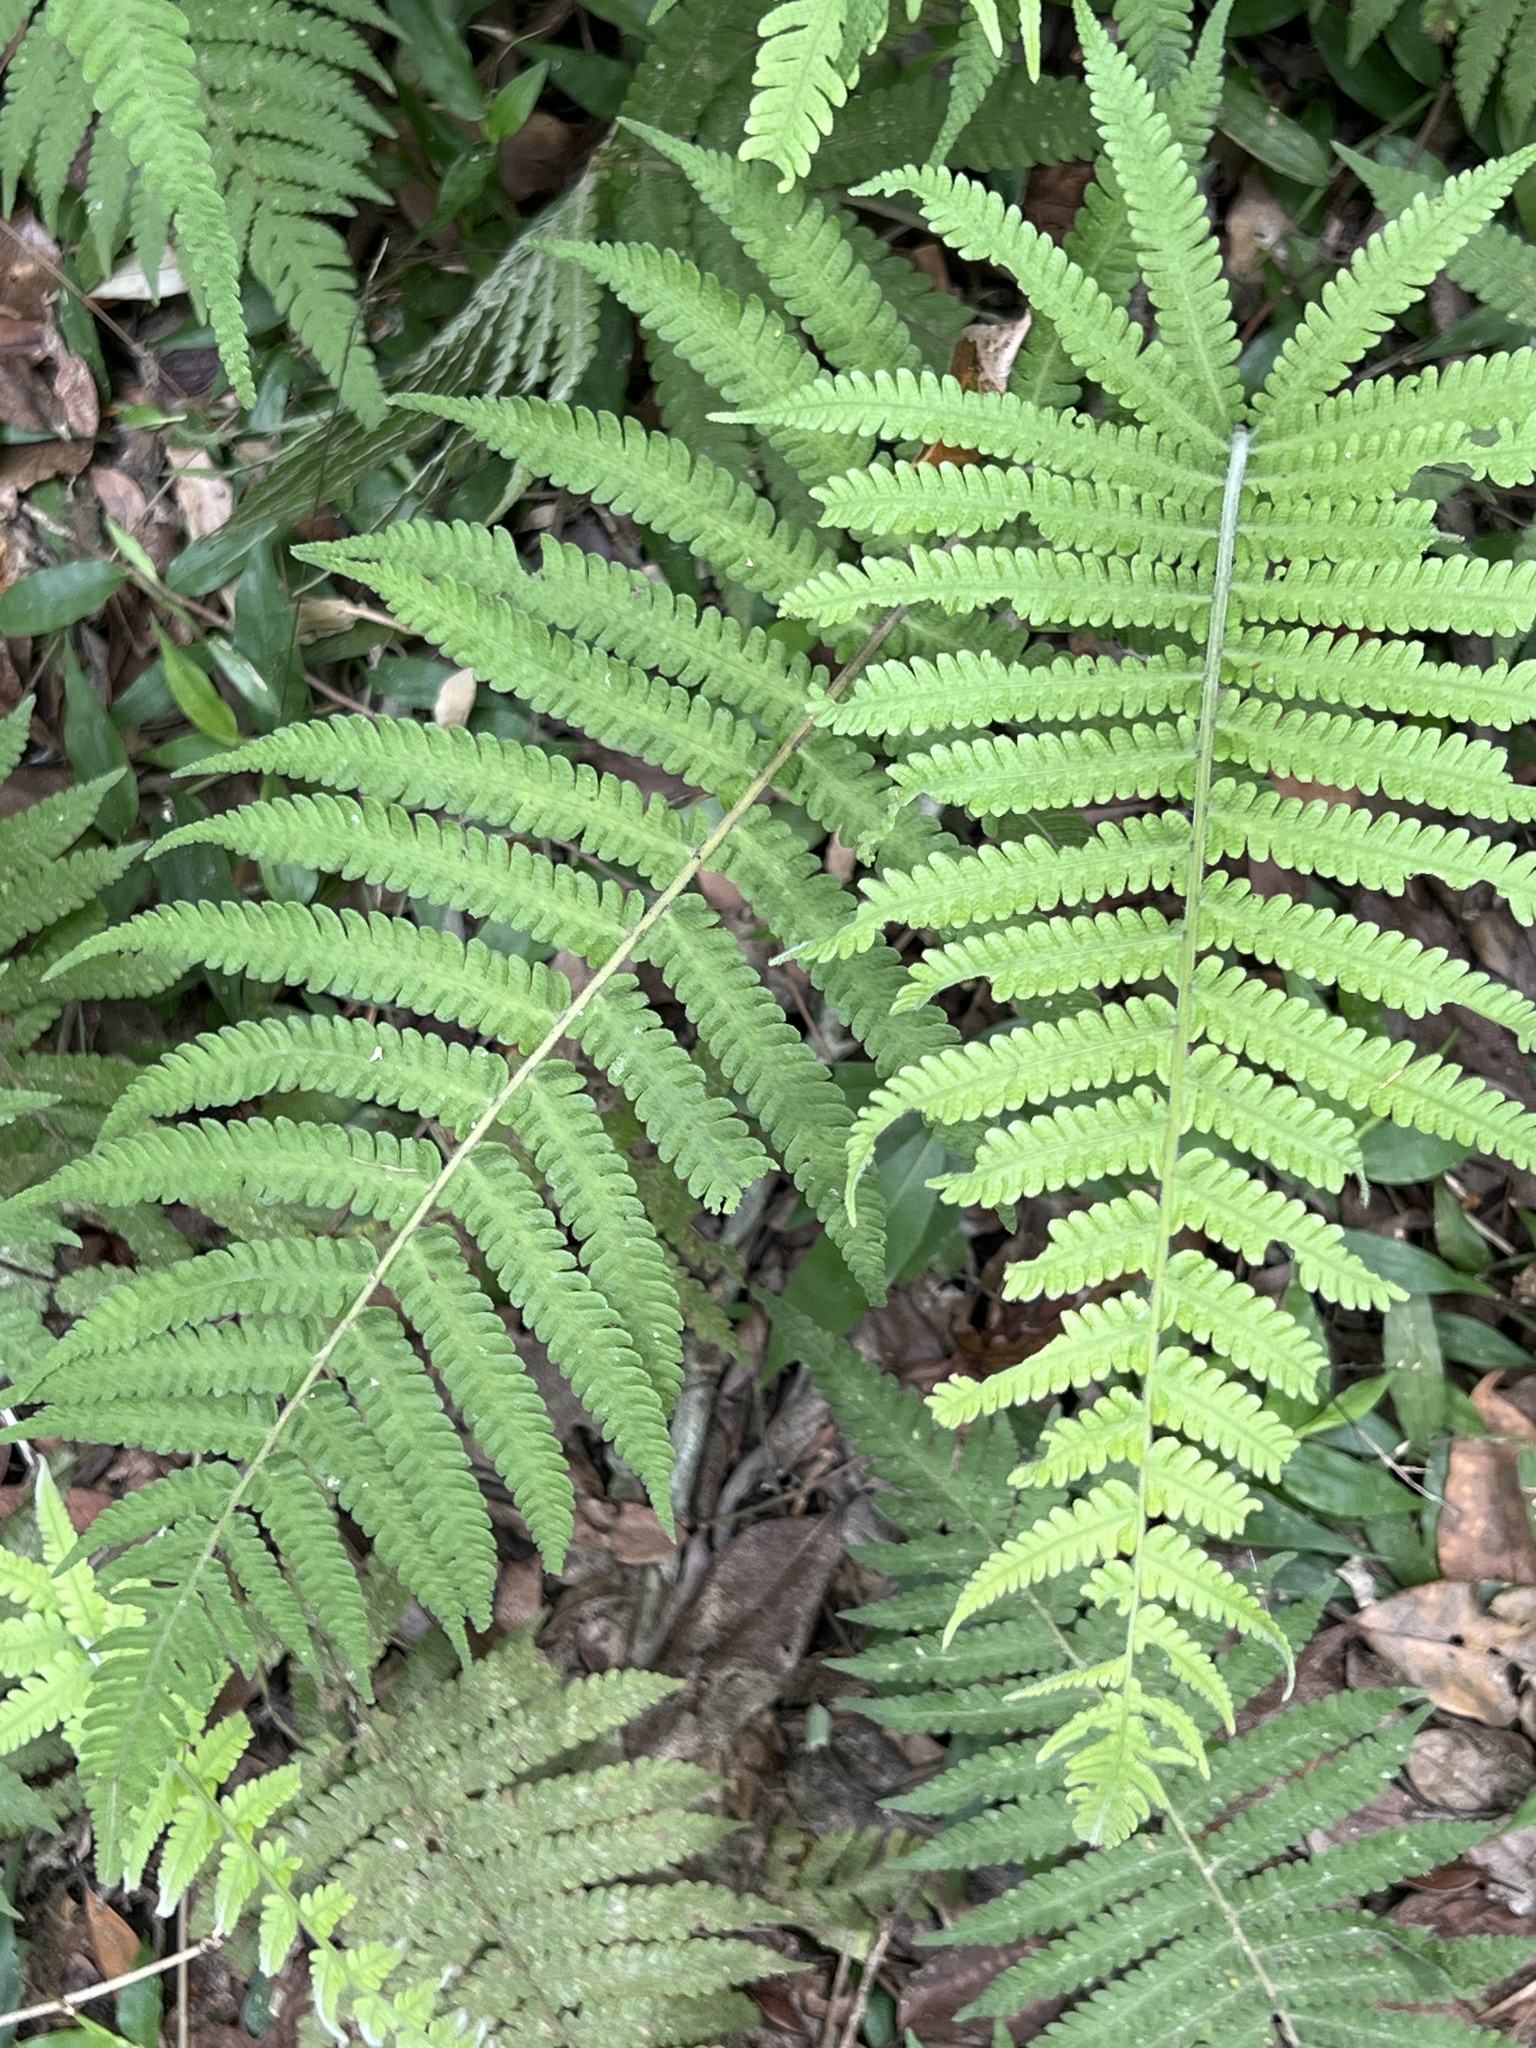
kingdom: Plantae
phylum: Tracheophyta
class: Polypodiopsida
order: Polypodiales
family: Thelypteridaceae
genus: Christella
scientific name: Christella parasitica
